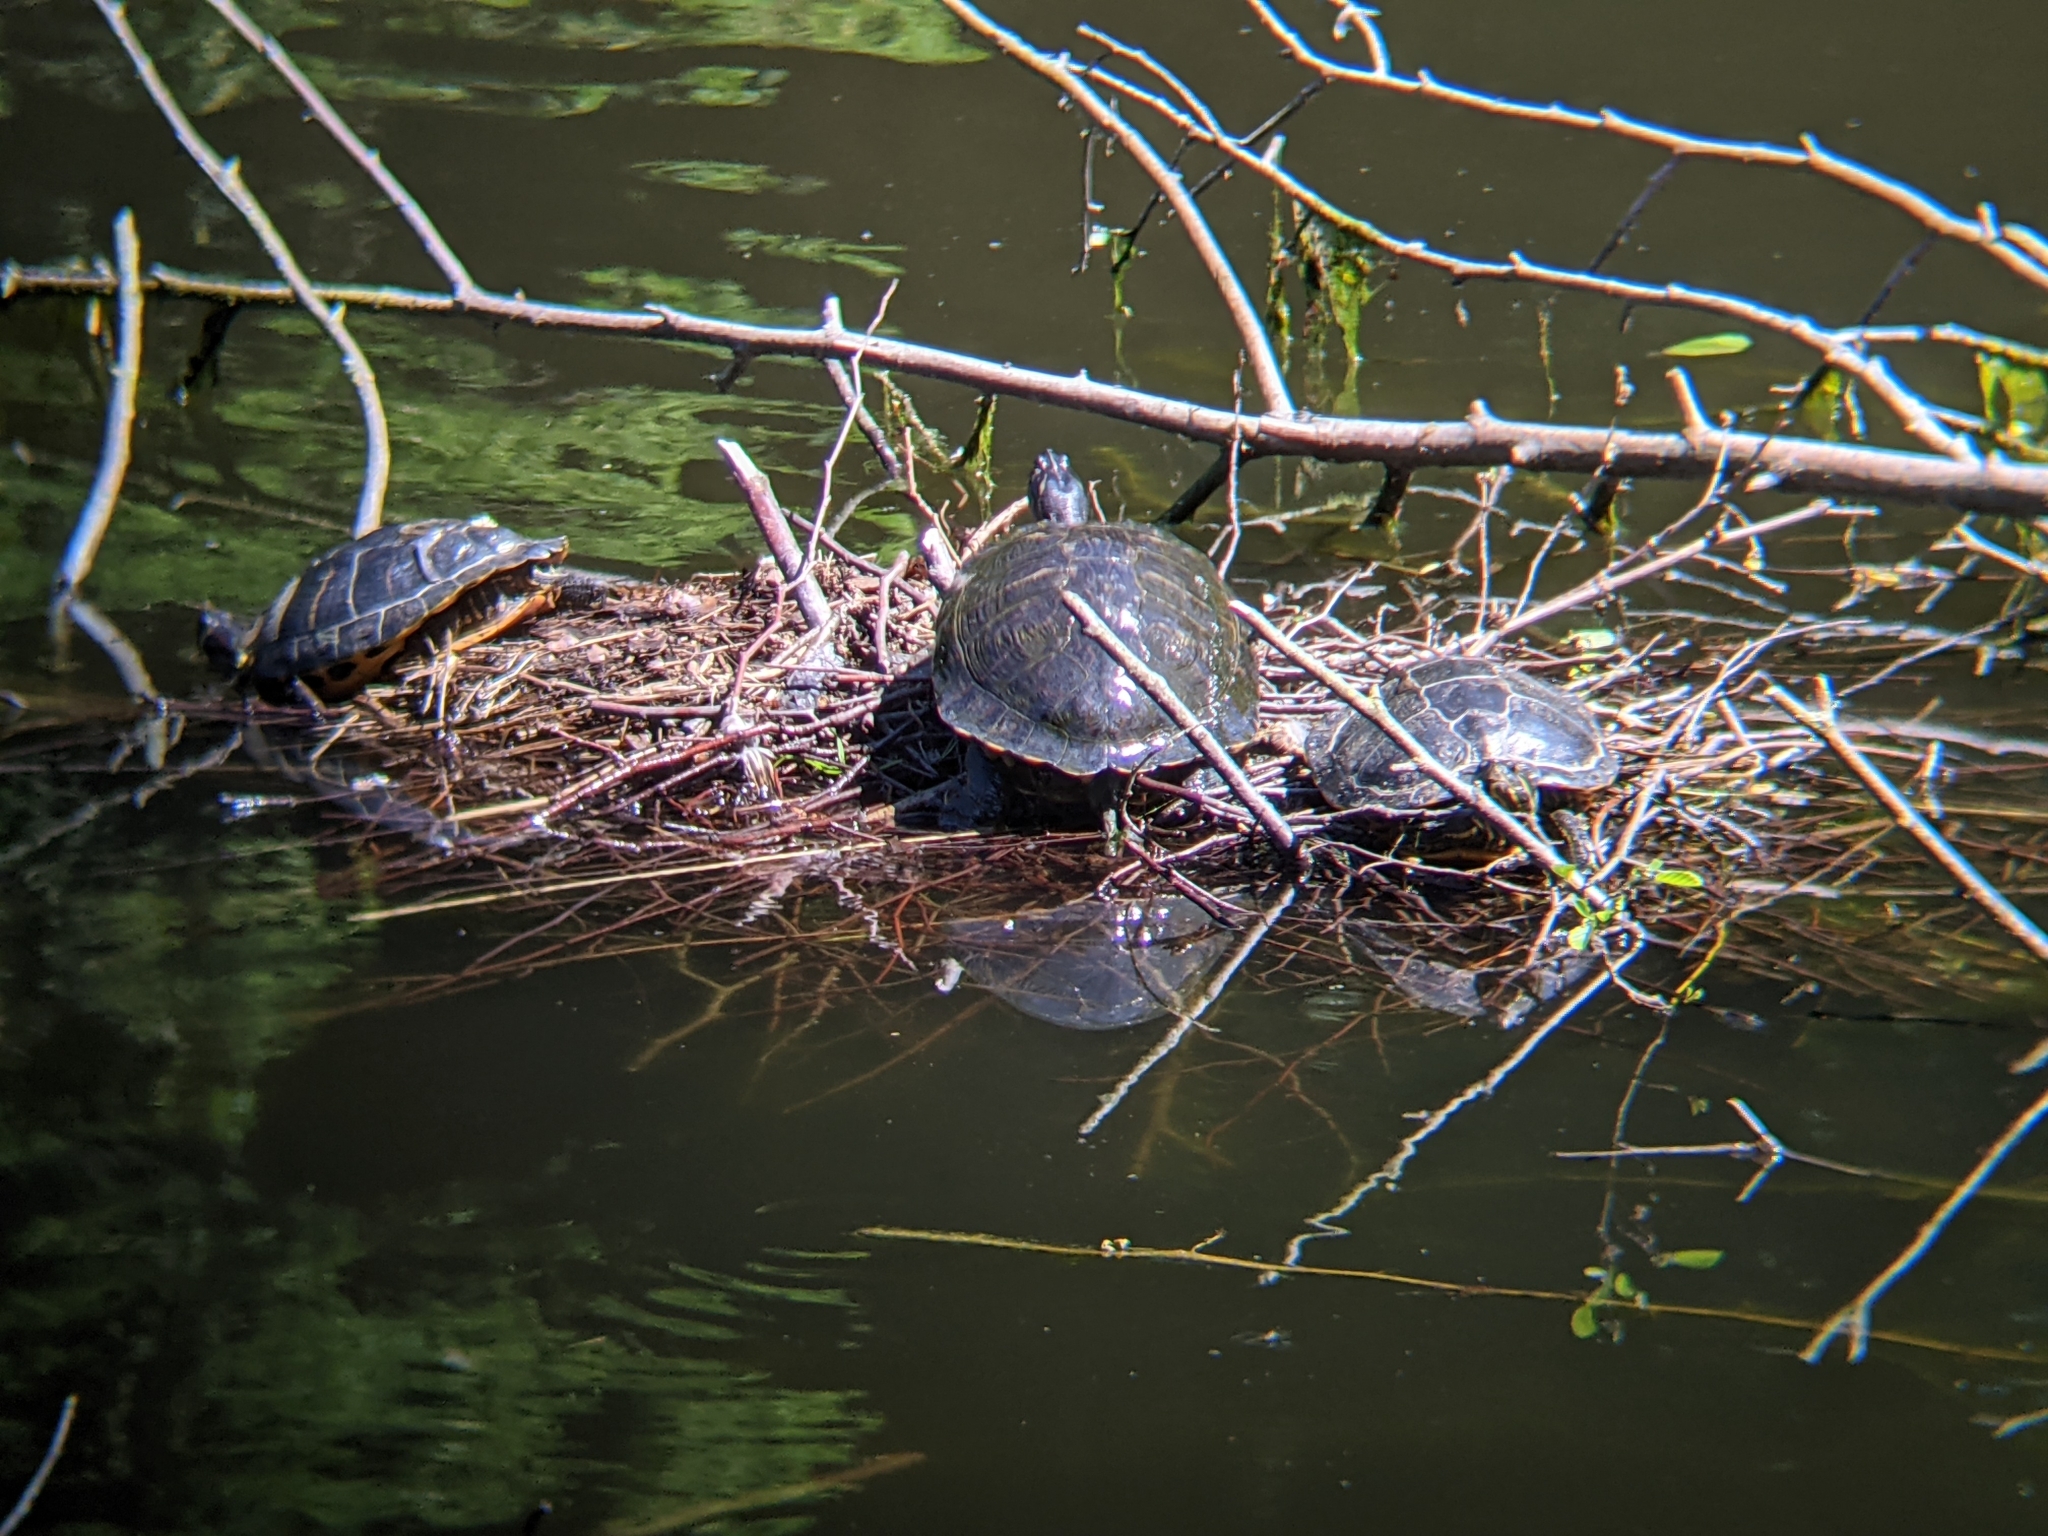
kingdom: Animalia
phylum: Chordata
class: Testudines
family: Emydidae
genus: Trachemys
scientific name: Trachemys scripta
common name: Slider
